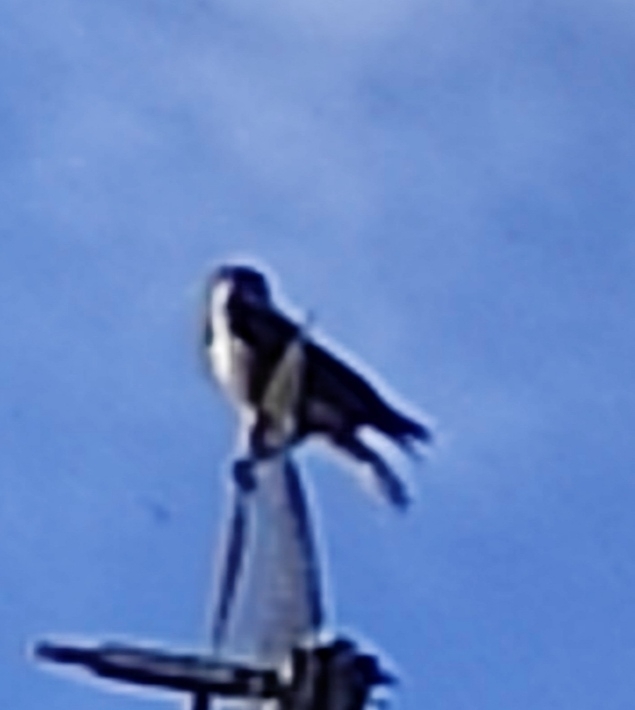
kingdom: Animalia
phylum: Chordata
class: Aves
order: Passeriformes
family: Corvidae
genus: Corvus
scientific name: Corvus cornix
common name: Hooded crow
